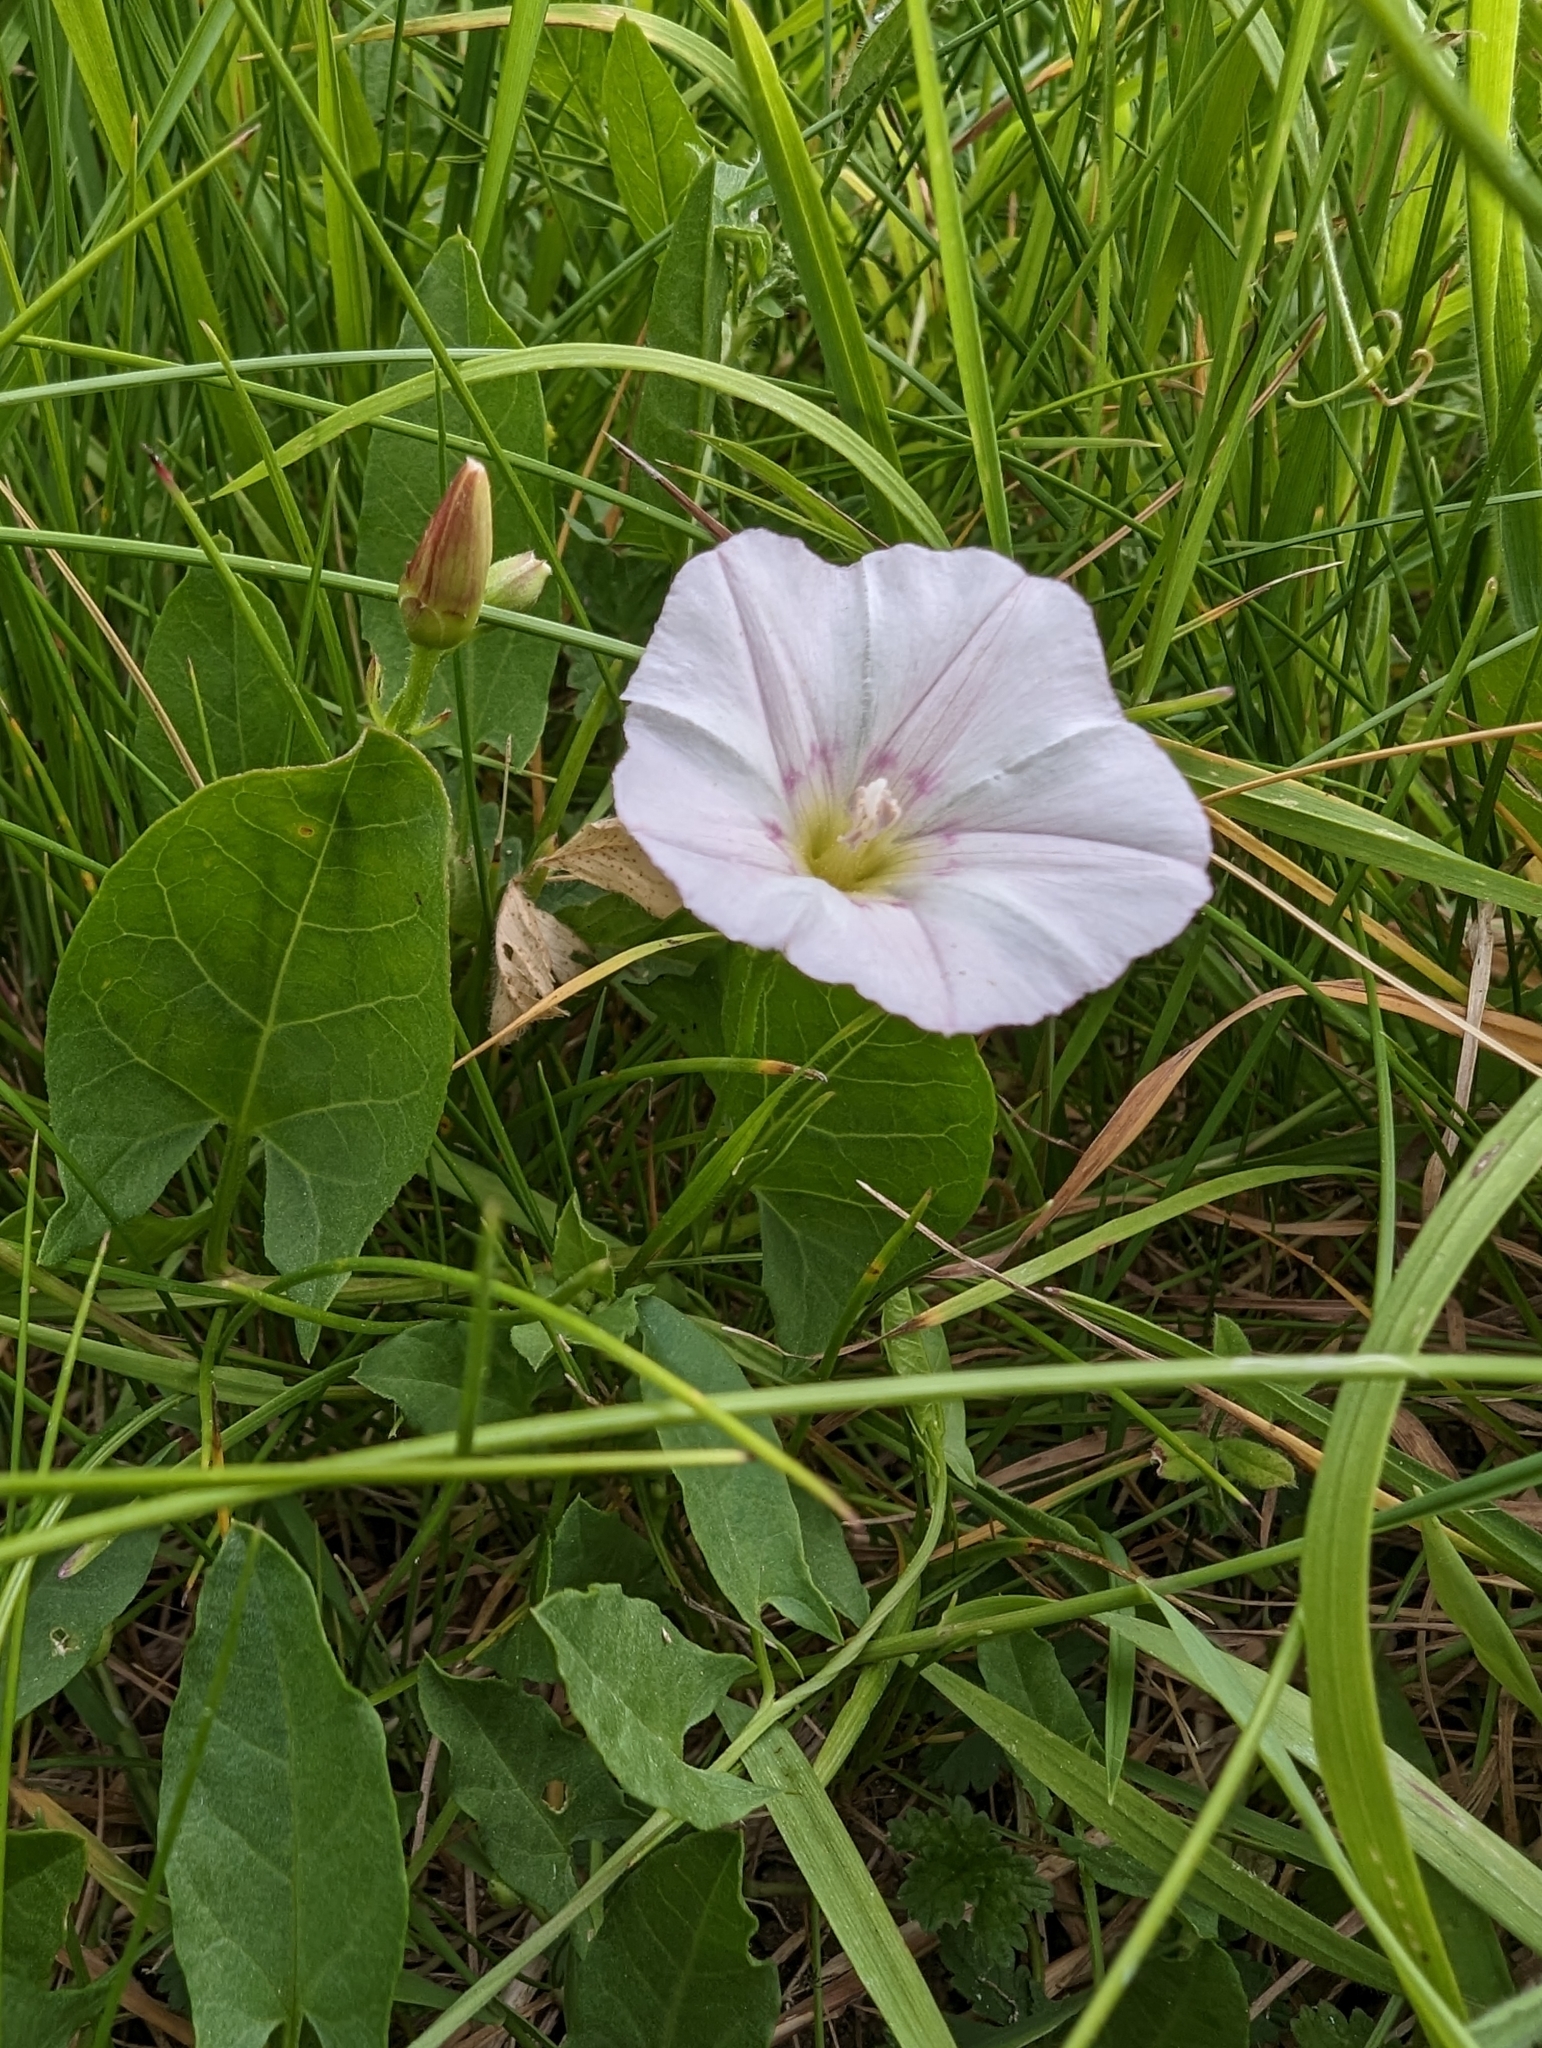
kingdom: Plantae
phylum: Tracheophyta
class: Magnoliopsida
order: Solanales
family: Convolvulaceae
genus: Convolvulus
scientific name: Convolvulus arvensis
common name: Field bindweed
